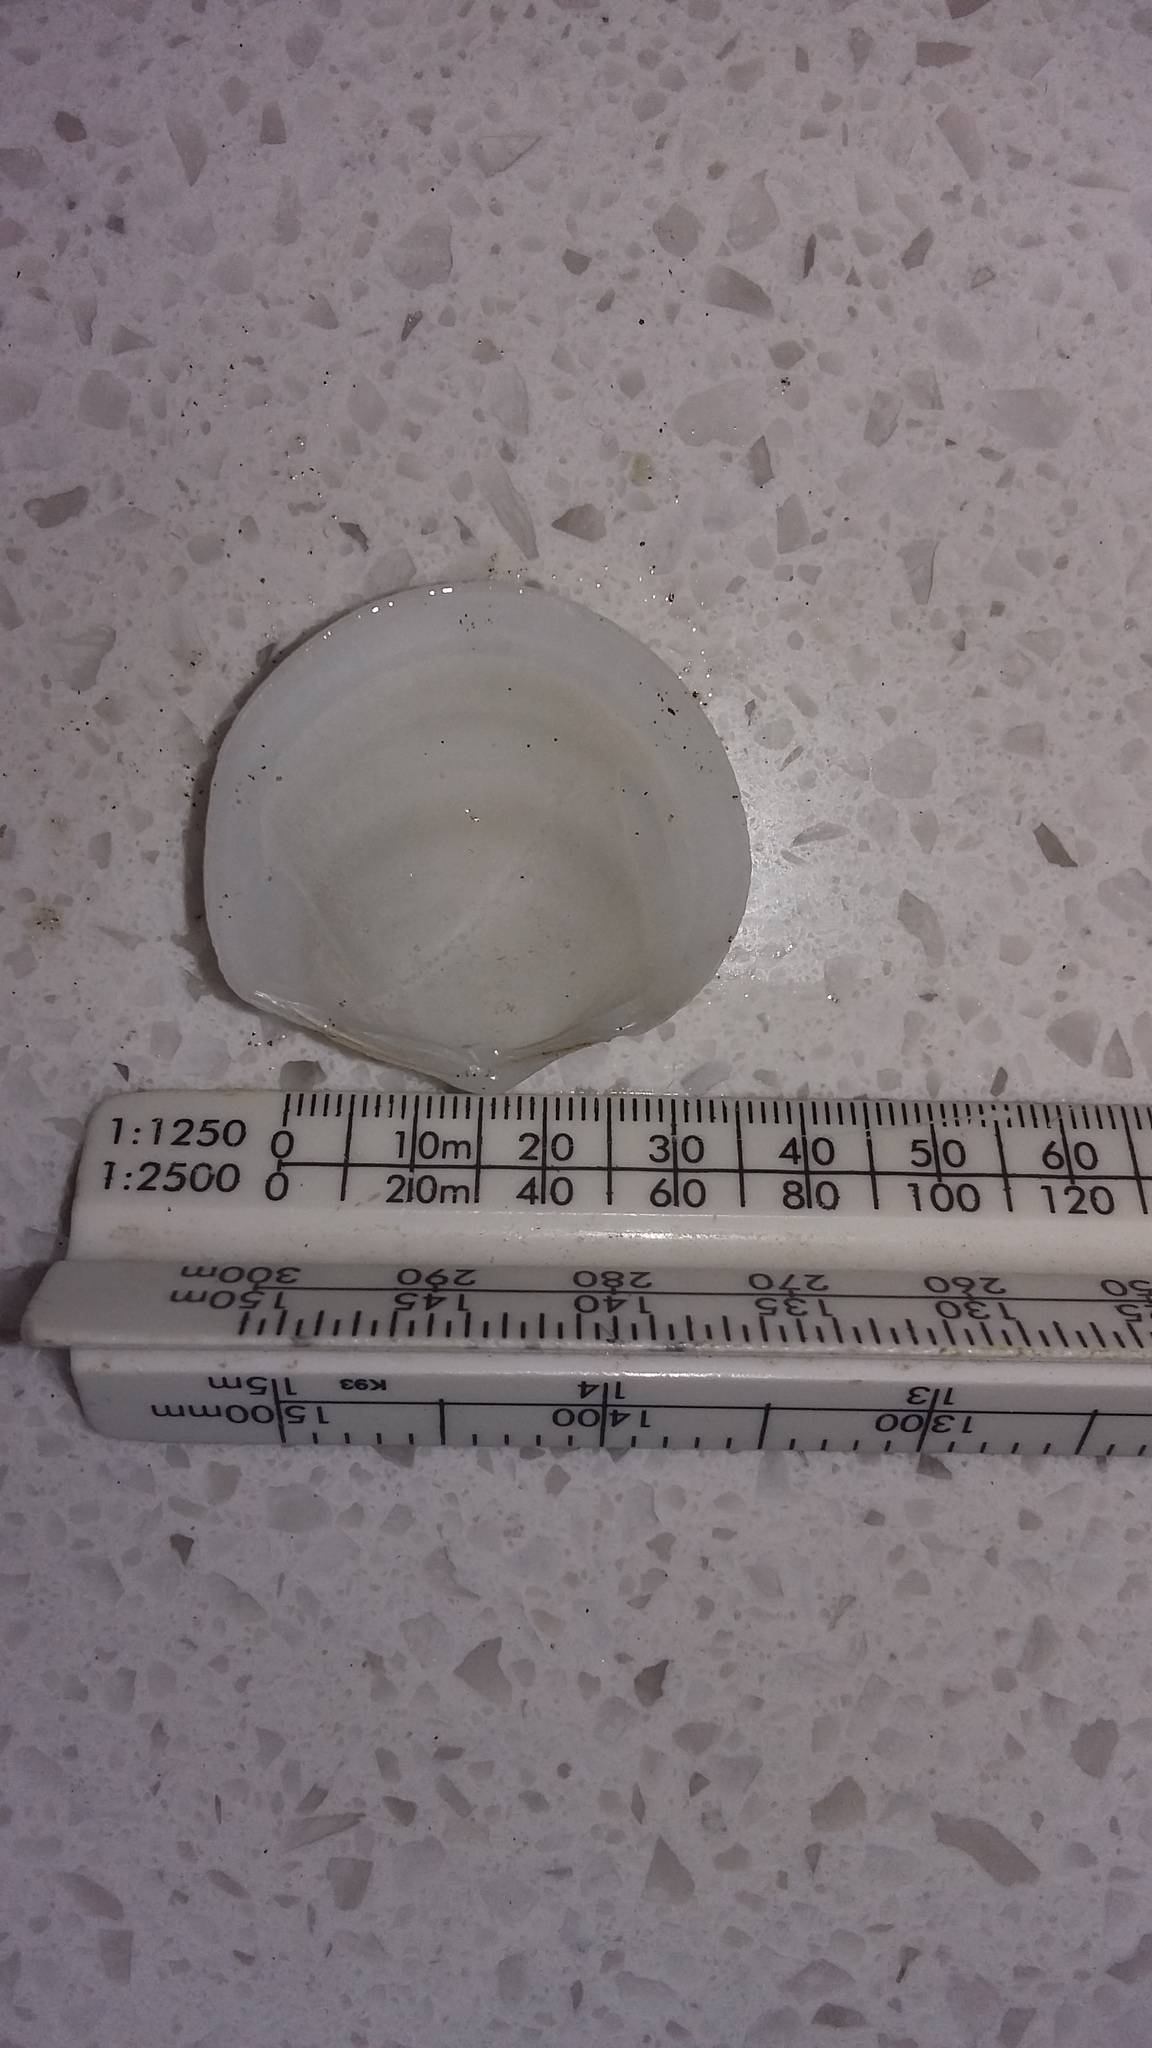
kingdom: Animalia
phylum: Mollusca
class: Bivalvia
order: Lucinida
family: Lucinidae
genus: Divalucina
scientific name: Divalucina cumingi
